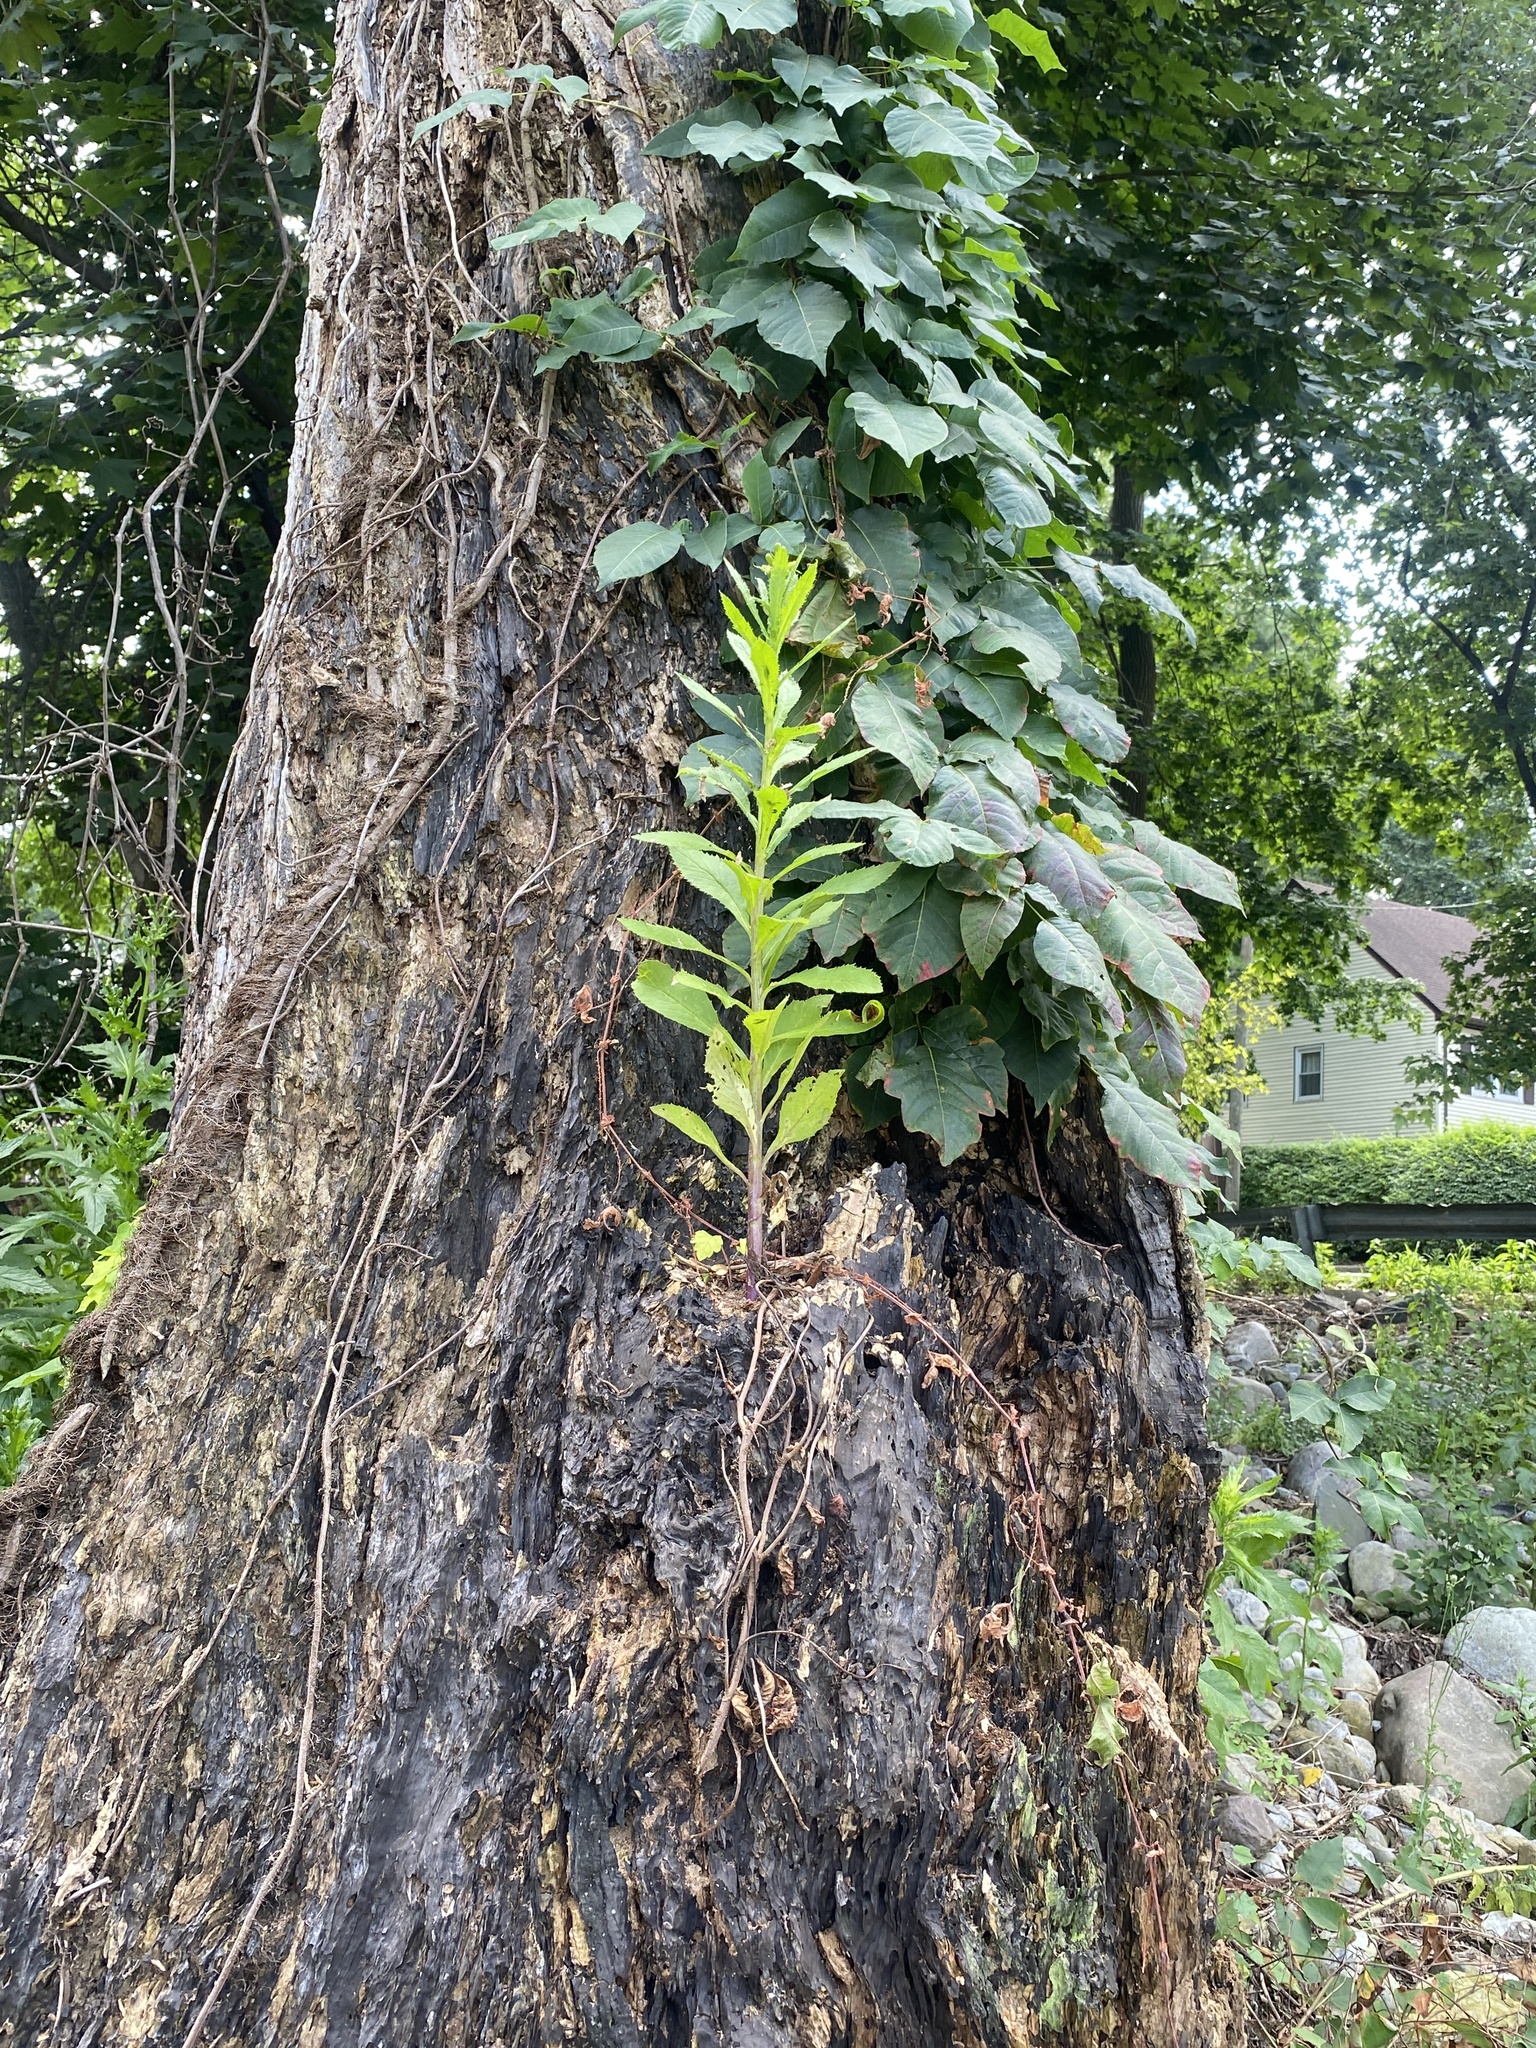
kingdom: Plantae
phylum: Tracheophyta
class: Magnoliopsida
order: Asterales
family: Asteraceae
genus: Erechtites
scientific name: Erechtites hieraciifolius
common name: American burnweed
